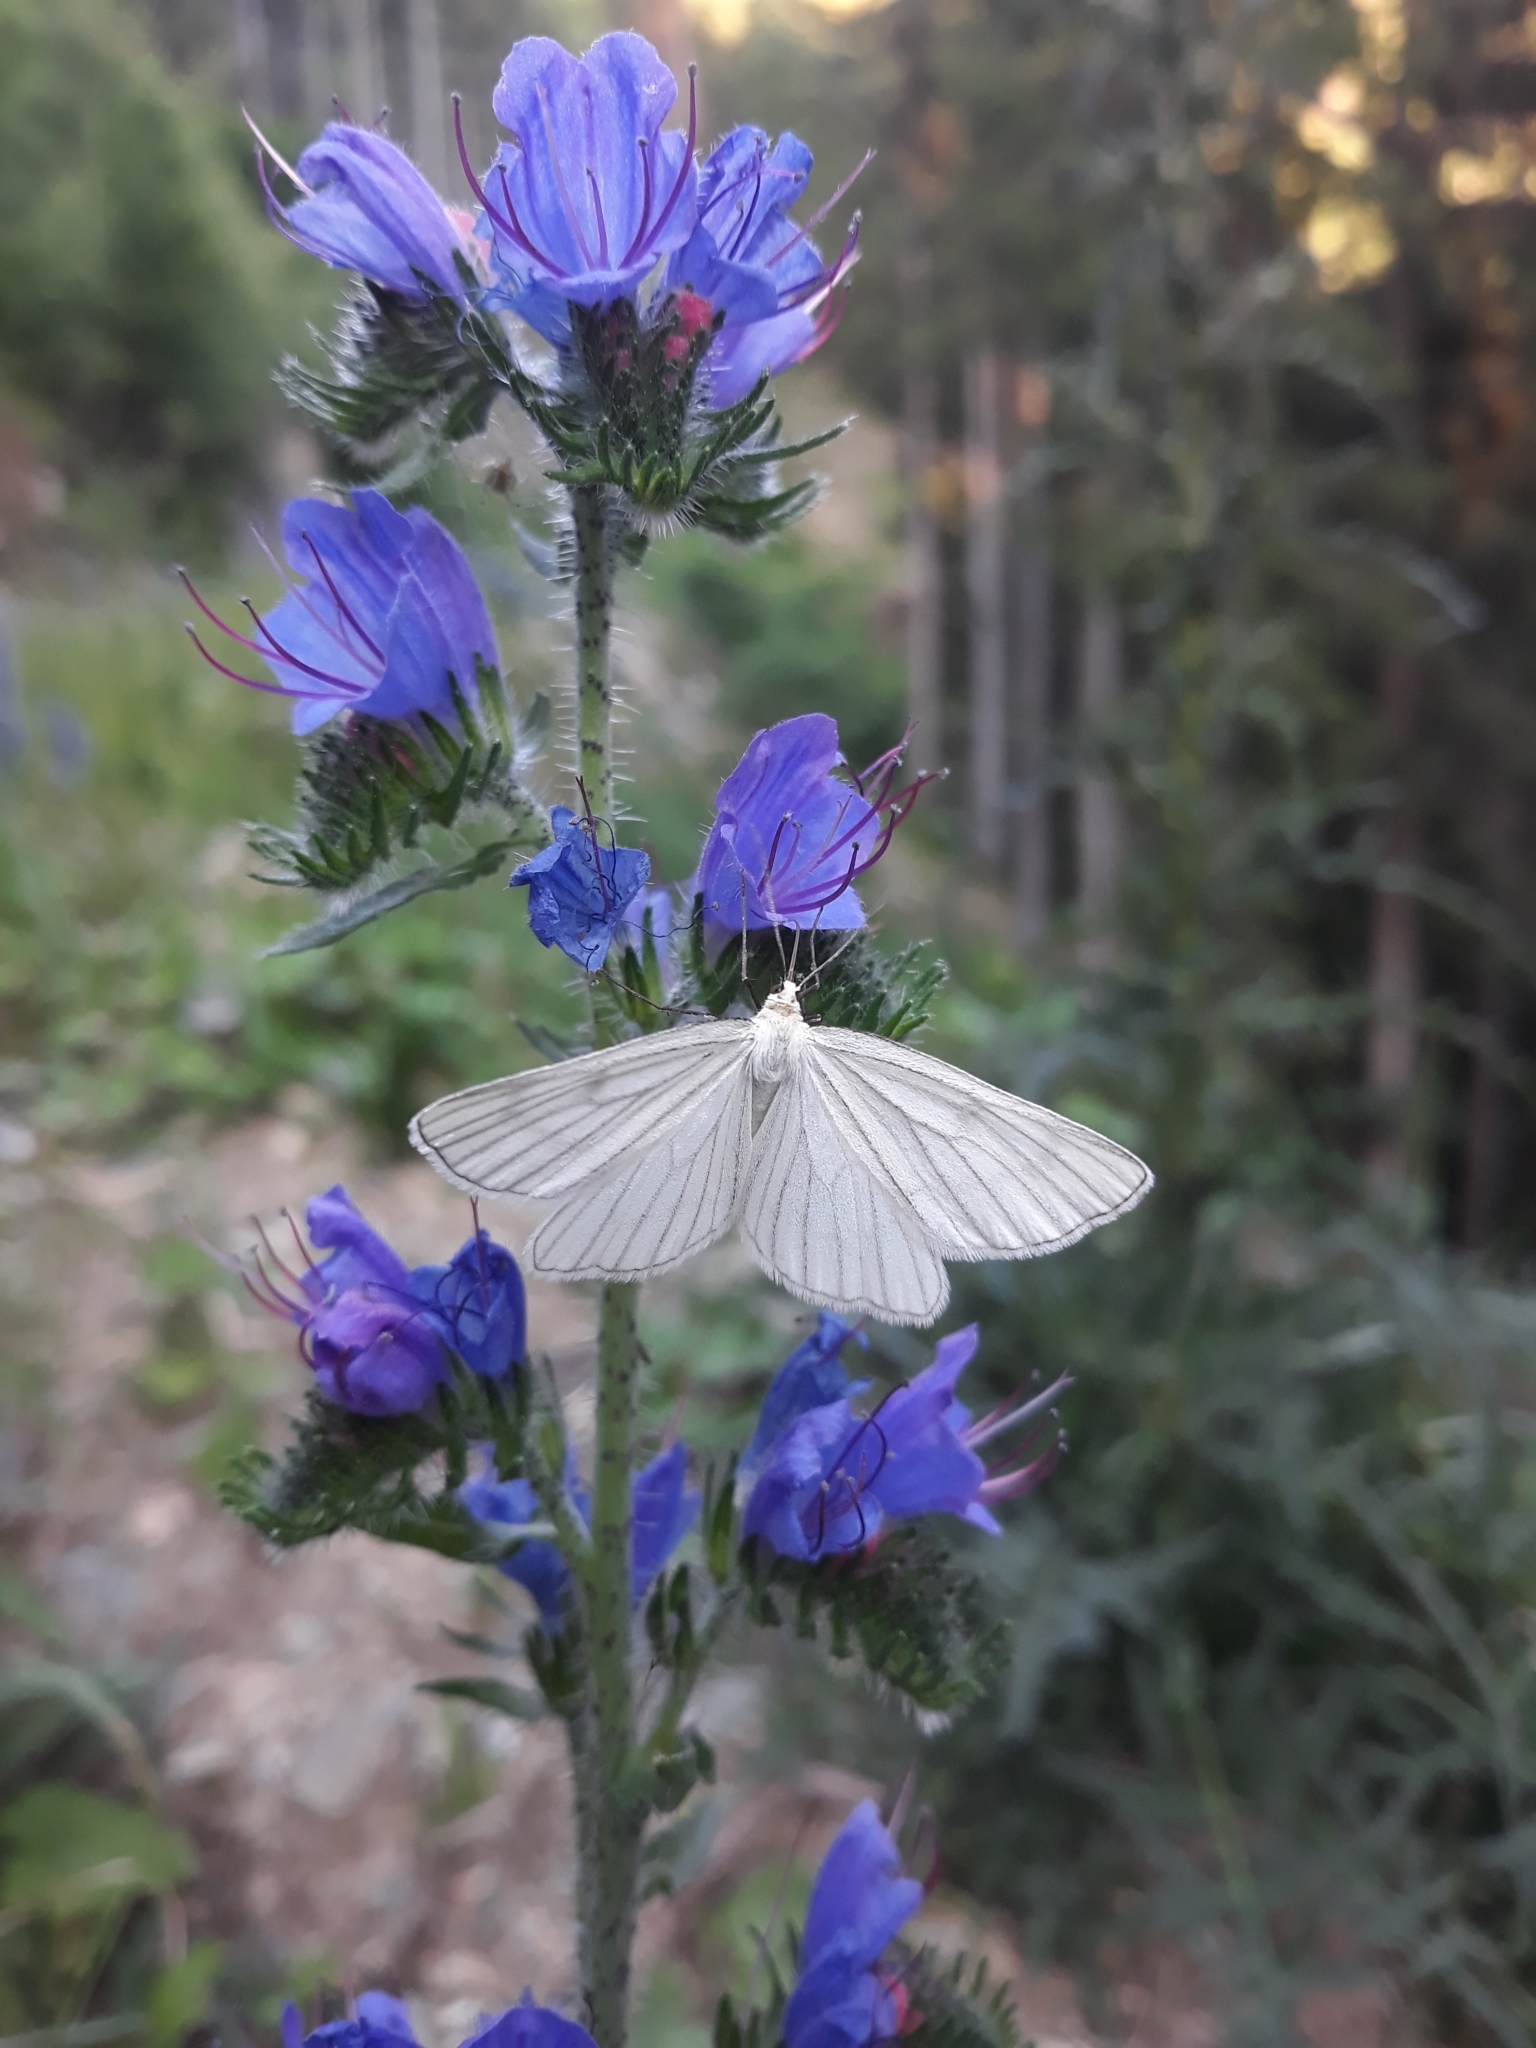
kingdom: Animalia
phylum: Arthropoda
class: Insecta
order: Lepidoptera
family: Geometridae
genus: Siona
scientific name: Siona lineata
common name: Black-veined moth
